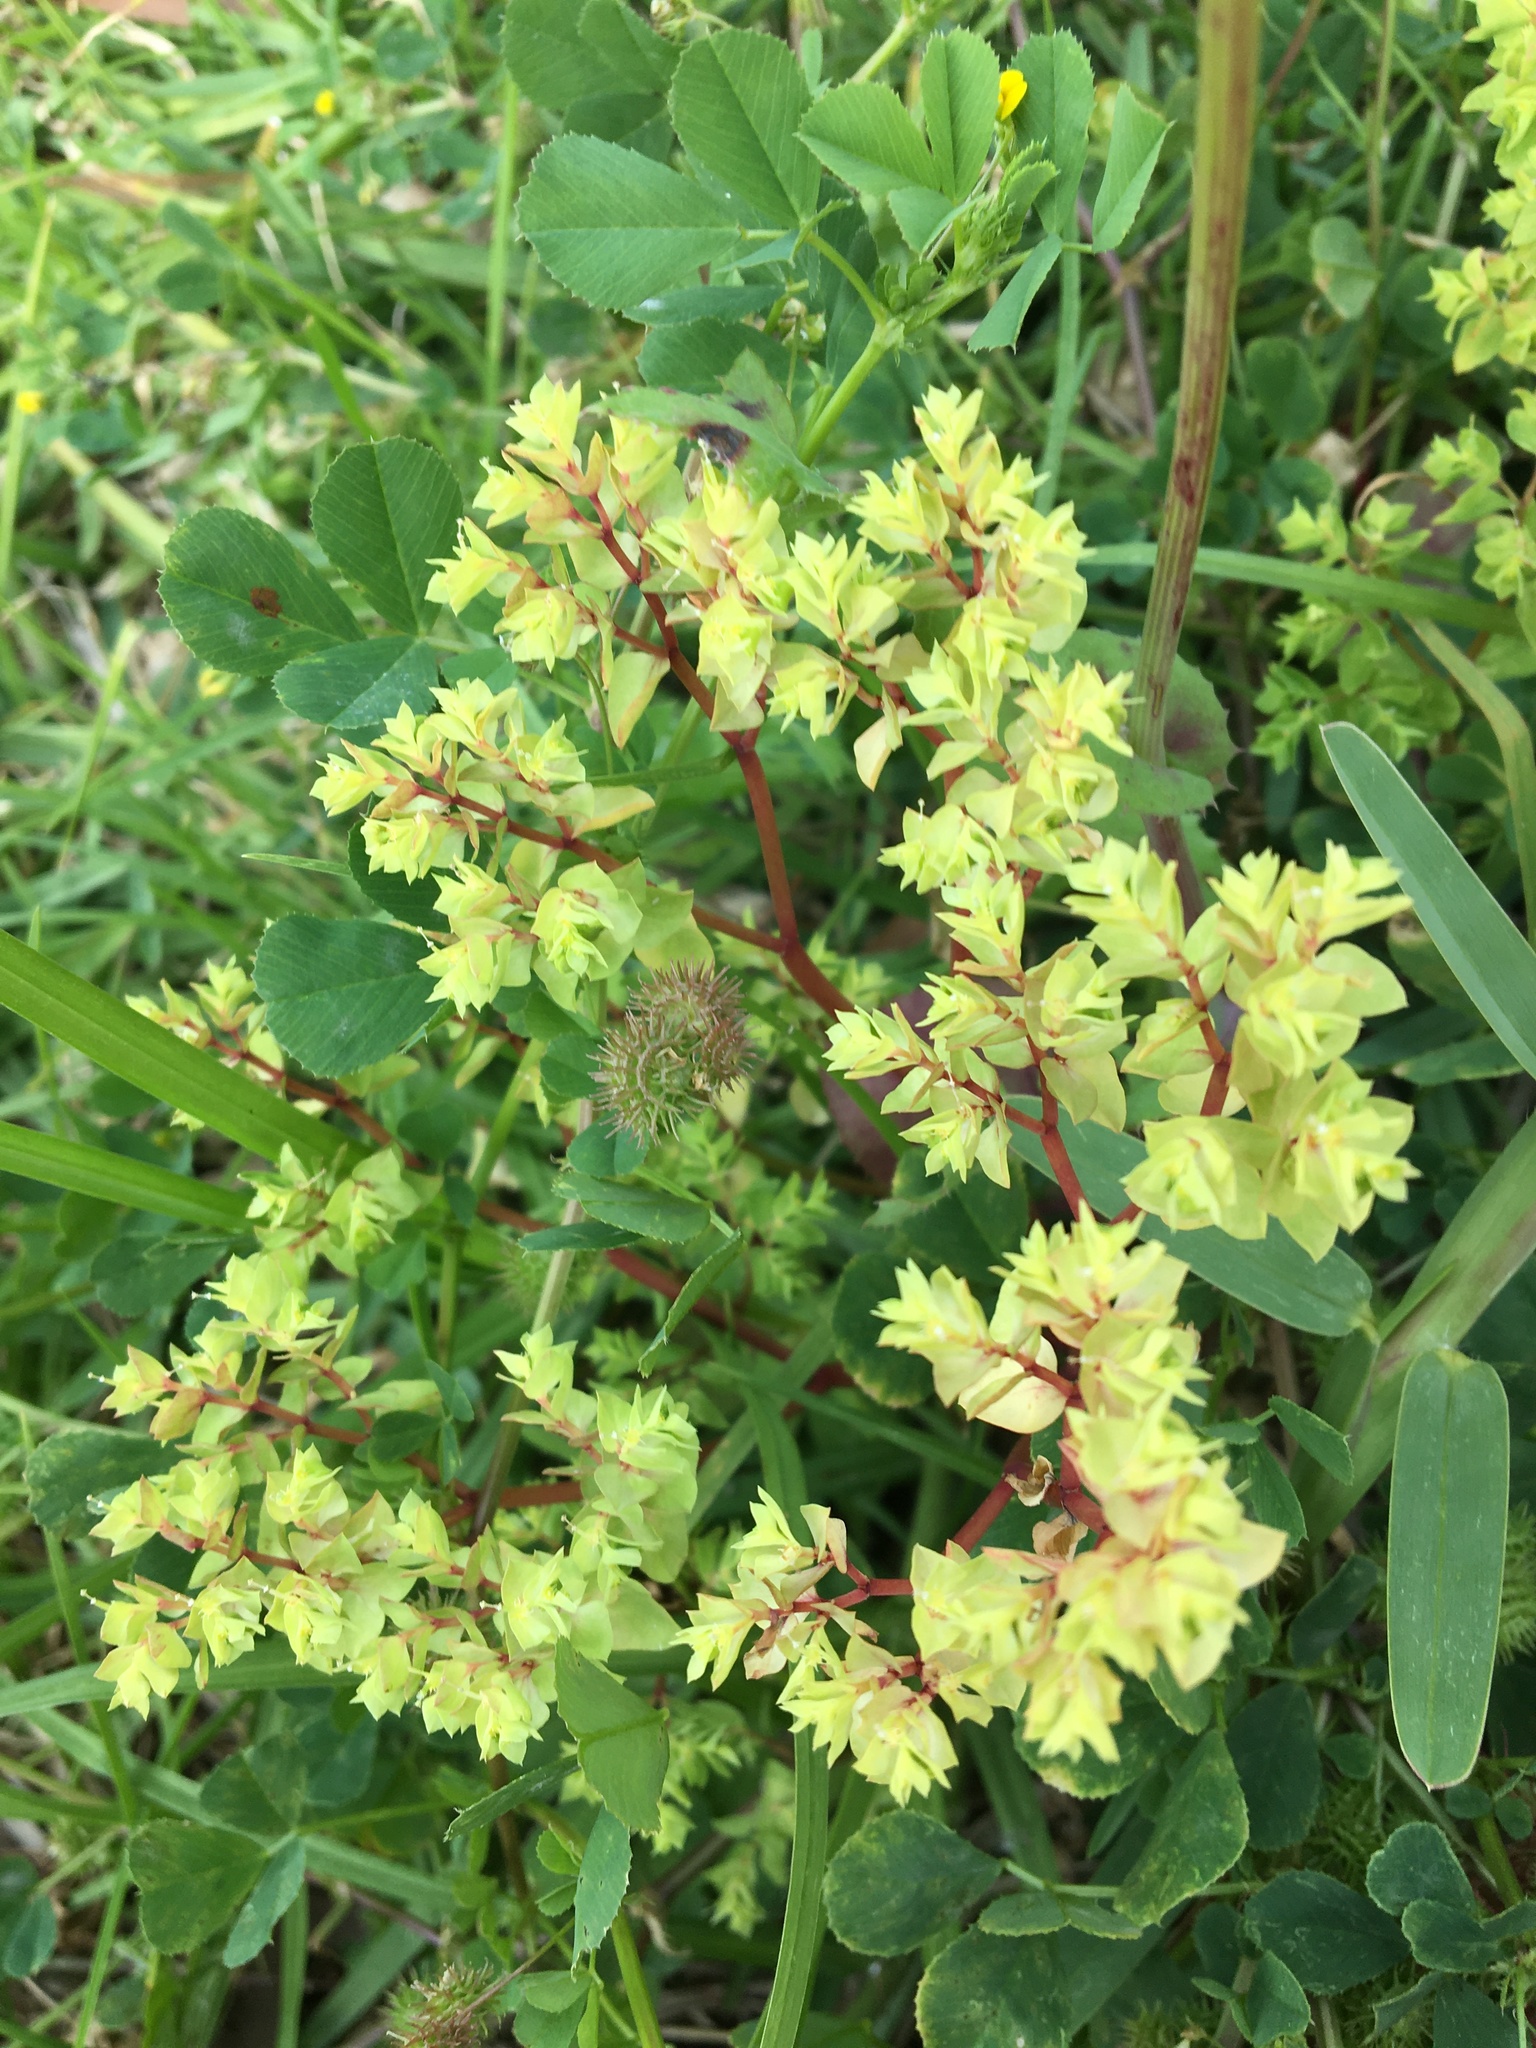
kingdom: Plantae
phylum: Tracheophyta
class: Magnoliopsida
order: Malpighiales
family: Euphorbiaceae
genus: Euphorbia
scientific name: Euphorbia peplus
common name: Petty spurge
